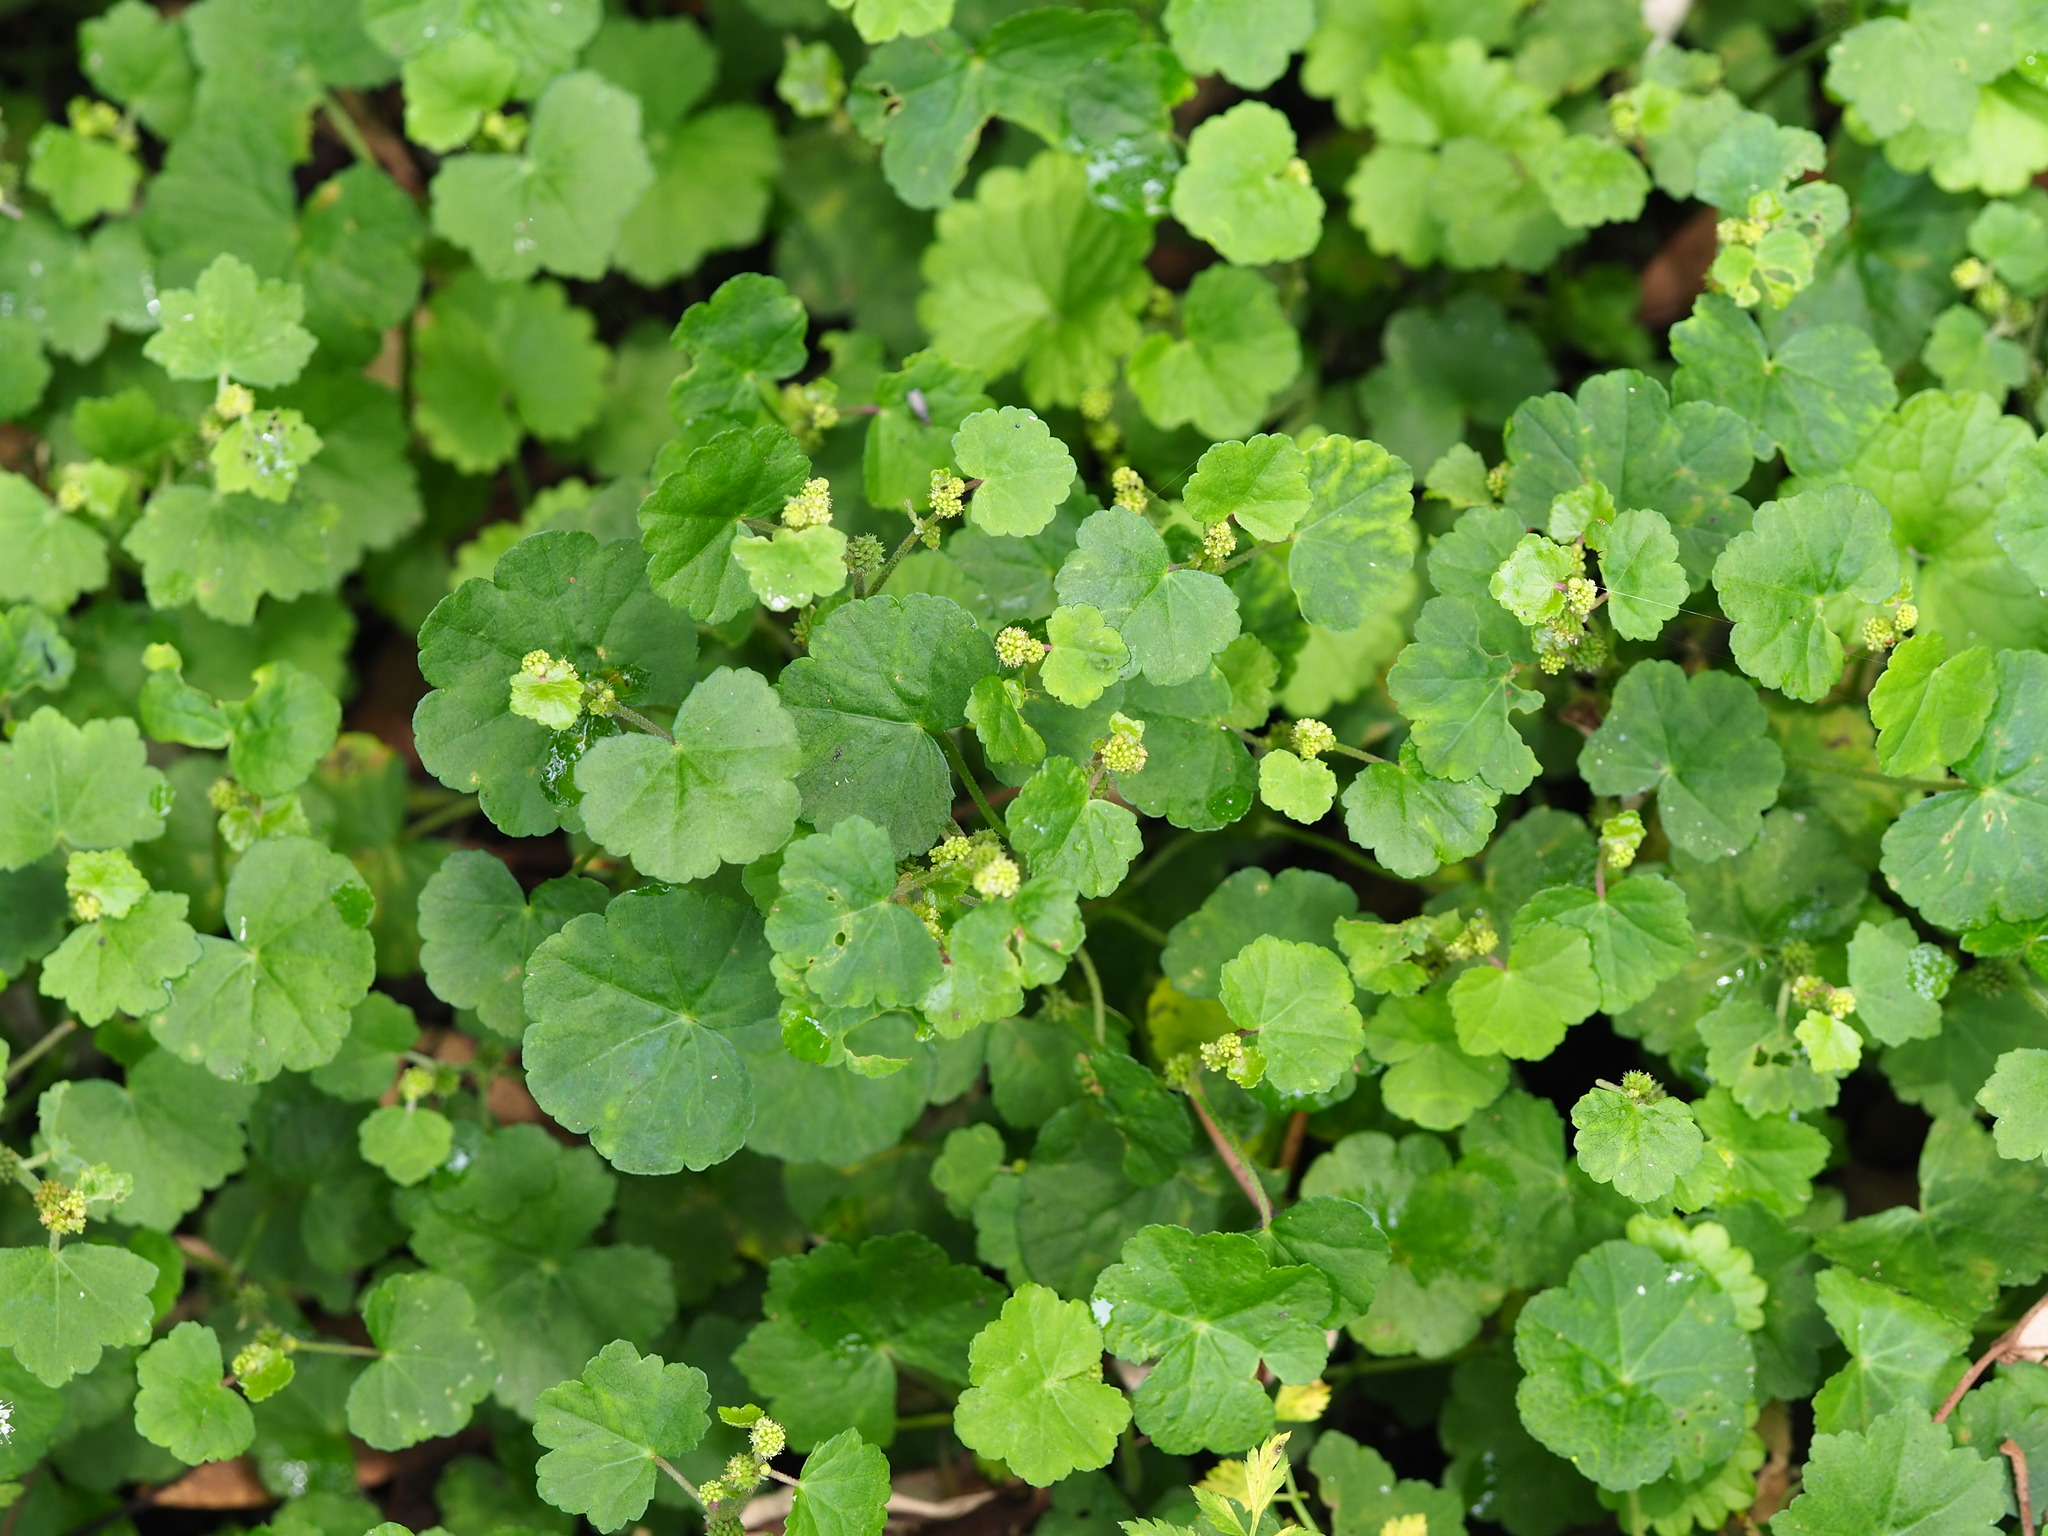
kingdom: Plantae
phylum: Tracheophyta
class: Magnoliopsida
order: Apiales
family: Araliaceae
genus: Hydrocotyle
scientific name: Hydrocotyle nepalensis
